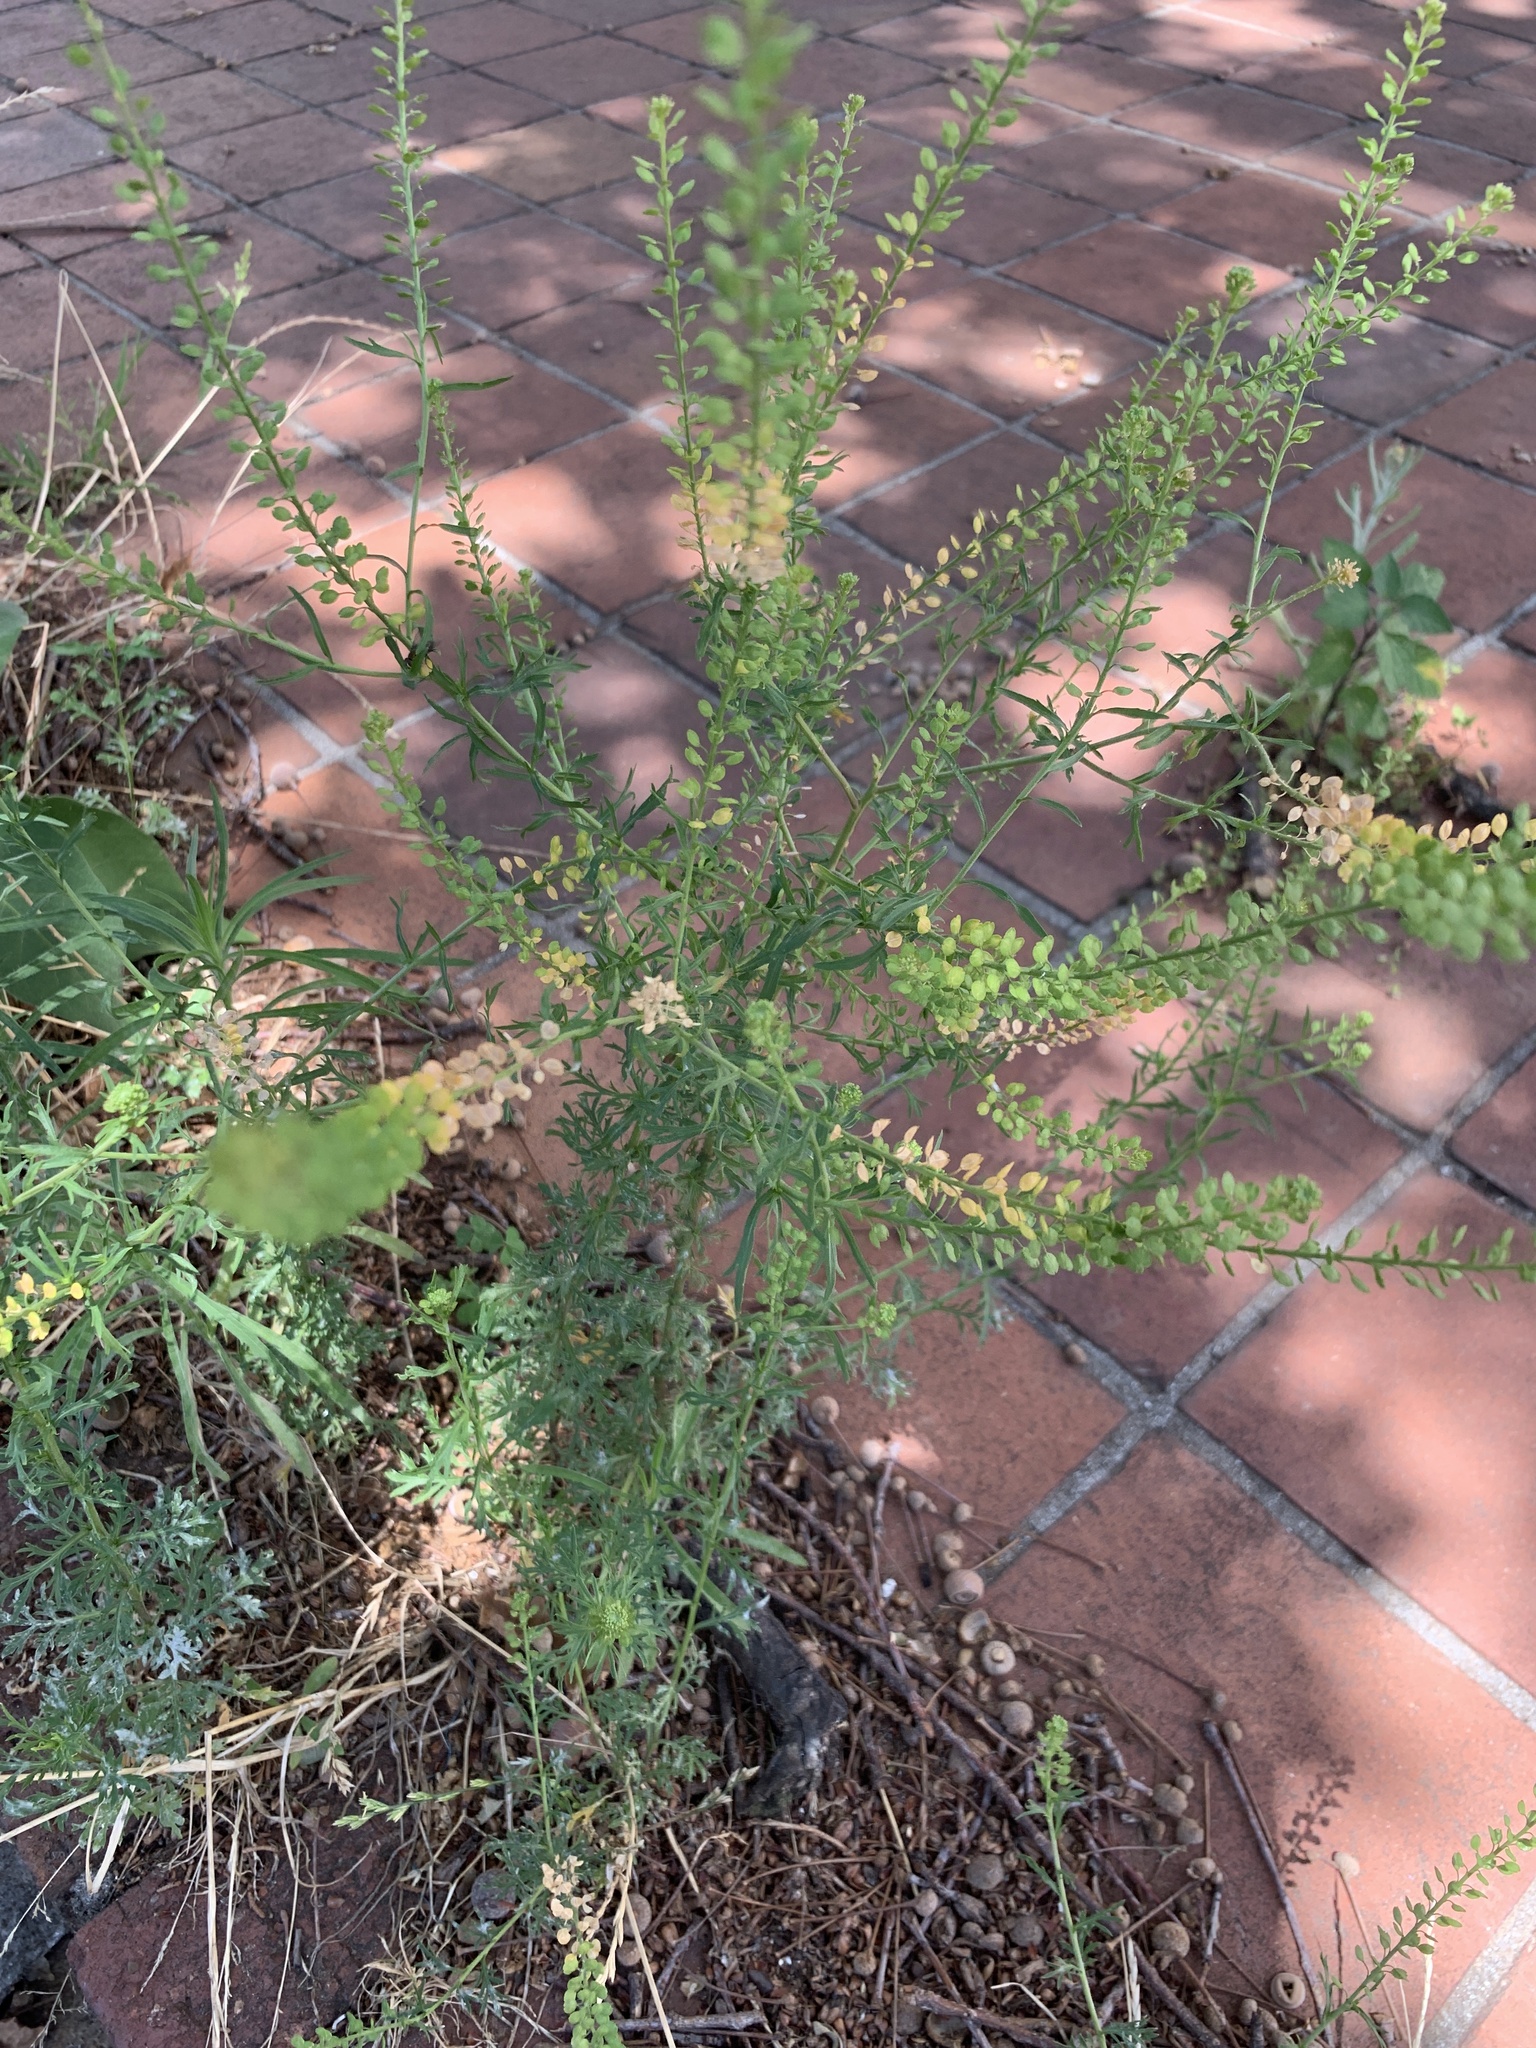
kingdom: Plantae
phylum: Tracheophyta
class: Magnoliopsida
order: Brassicales
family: Brassicaceae
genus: Lepidium
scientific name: Lepidium bonariense
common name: Argentine pepperwort
